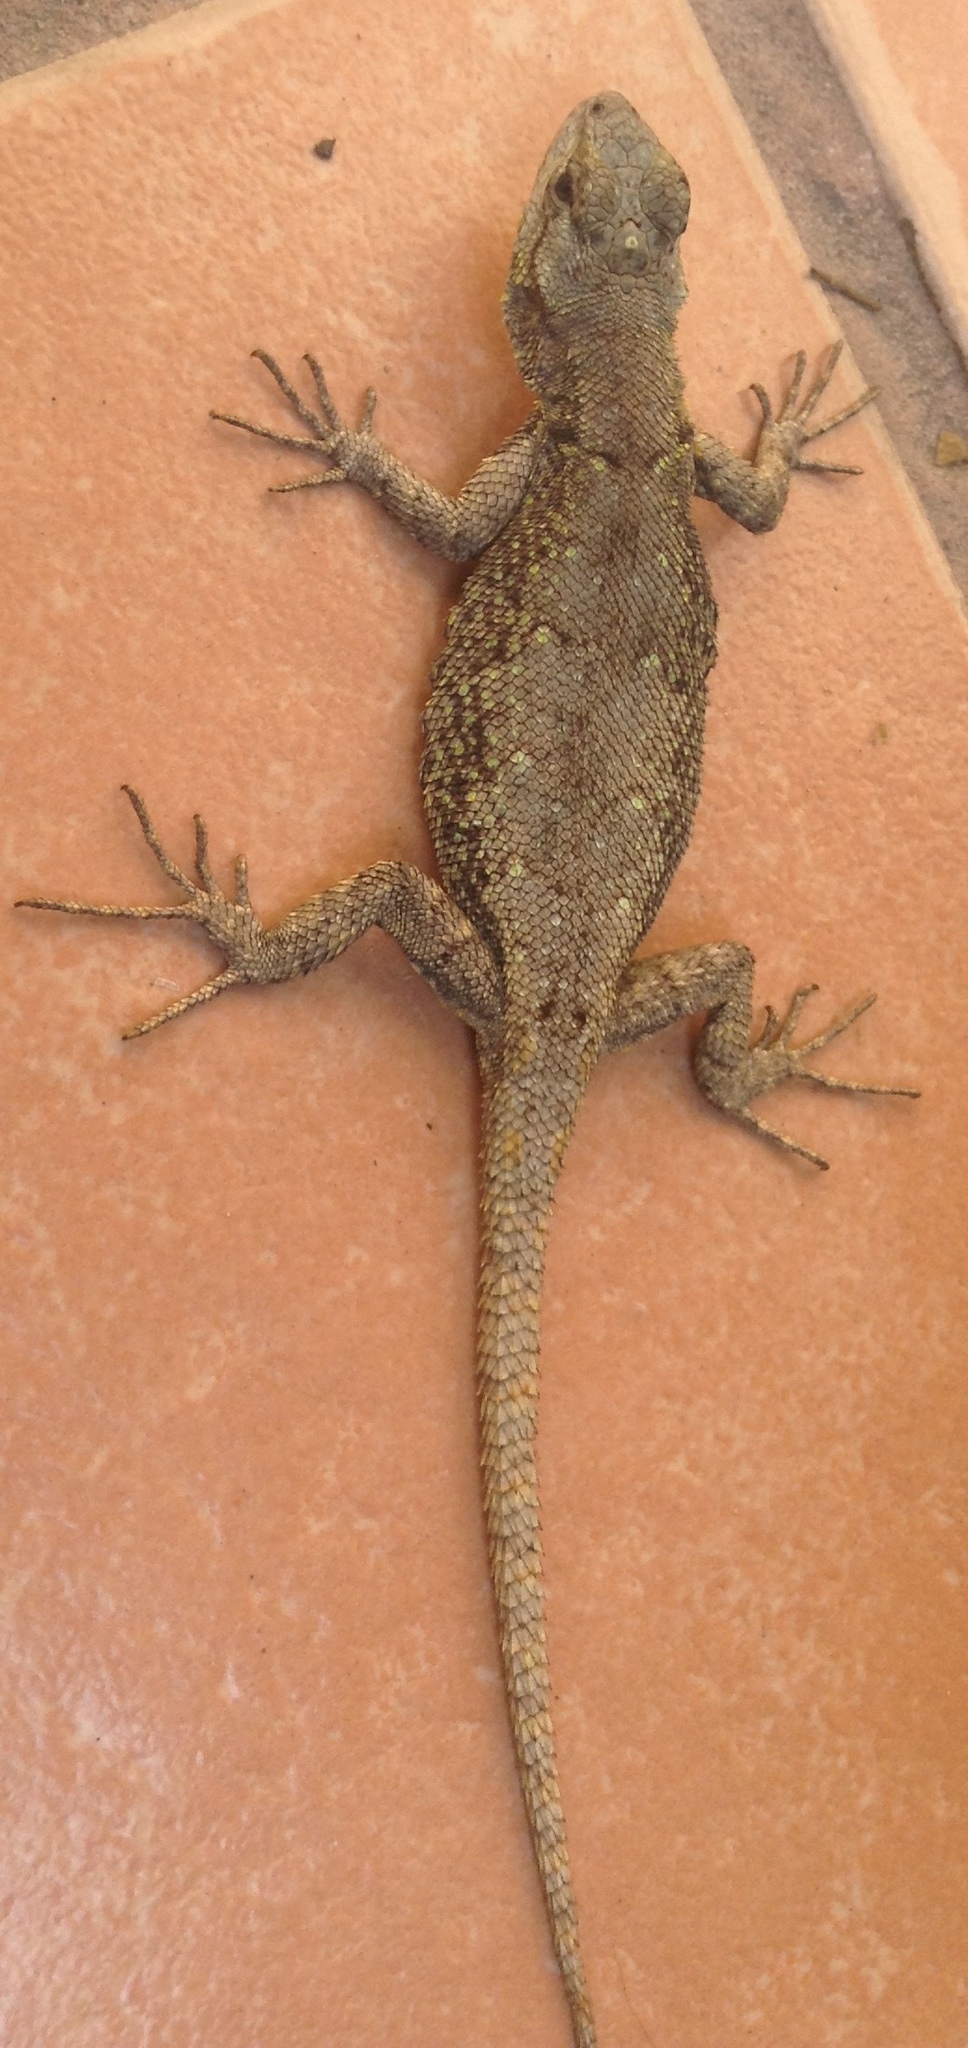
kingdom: Animalia
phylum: Chordata
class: Squamata
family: Phrynosomatidae
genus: Sceloporus
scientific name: Sceloporus grammicus
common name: Mesquite lizard
